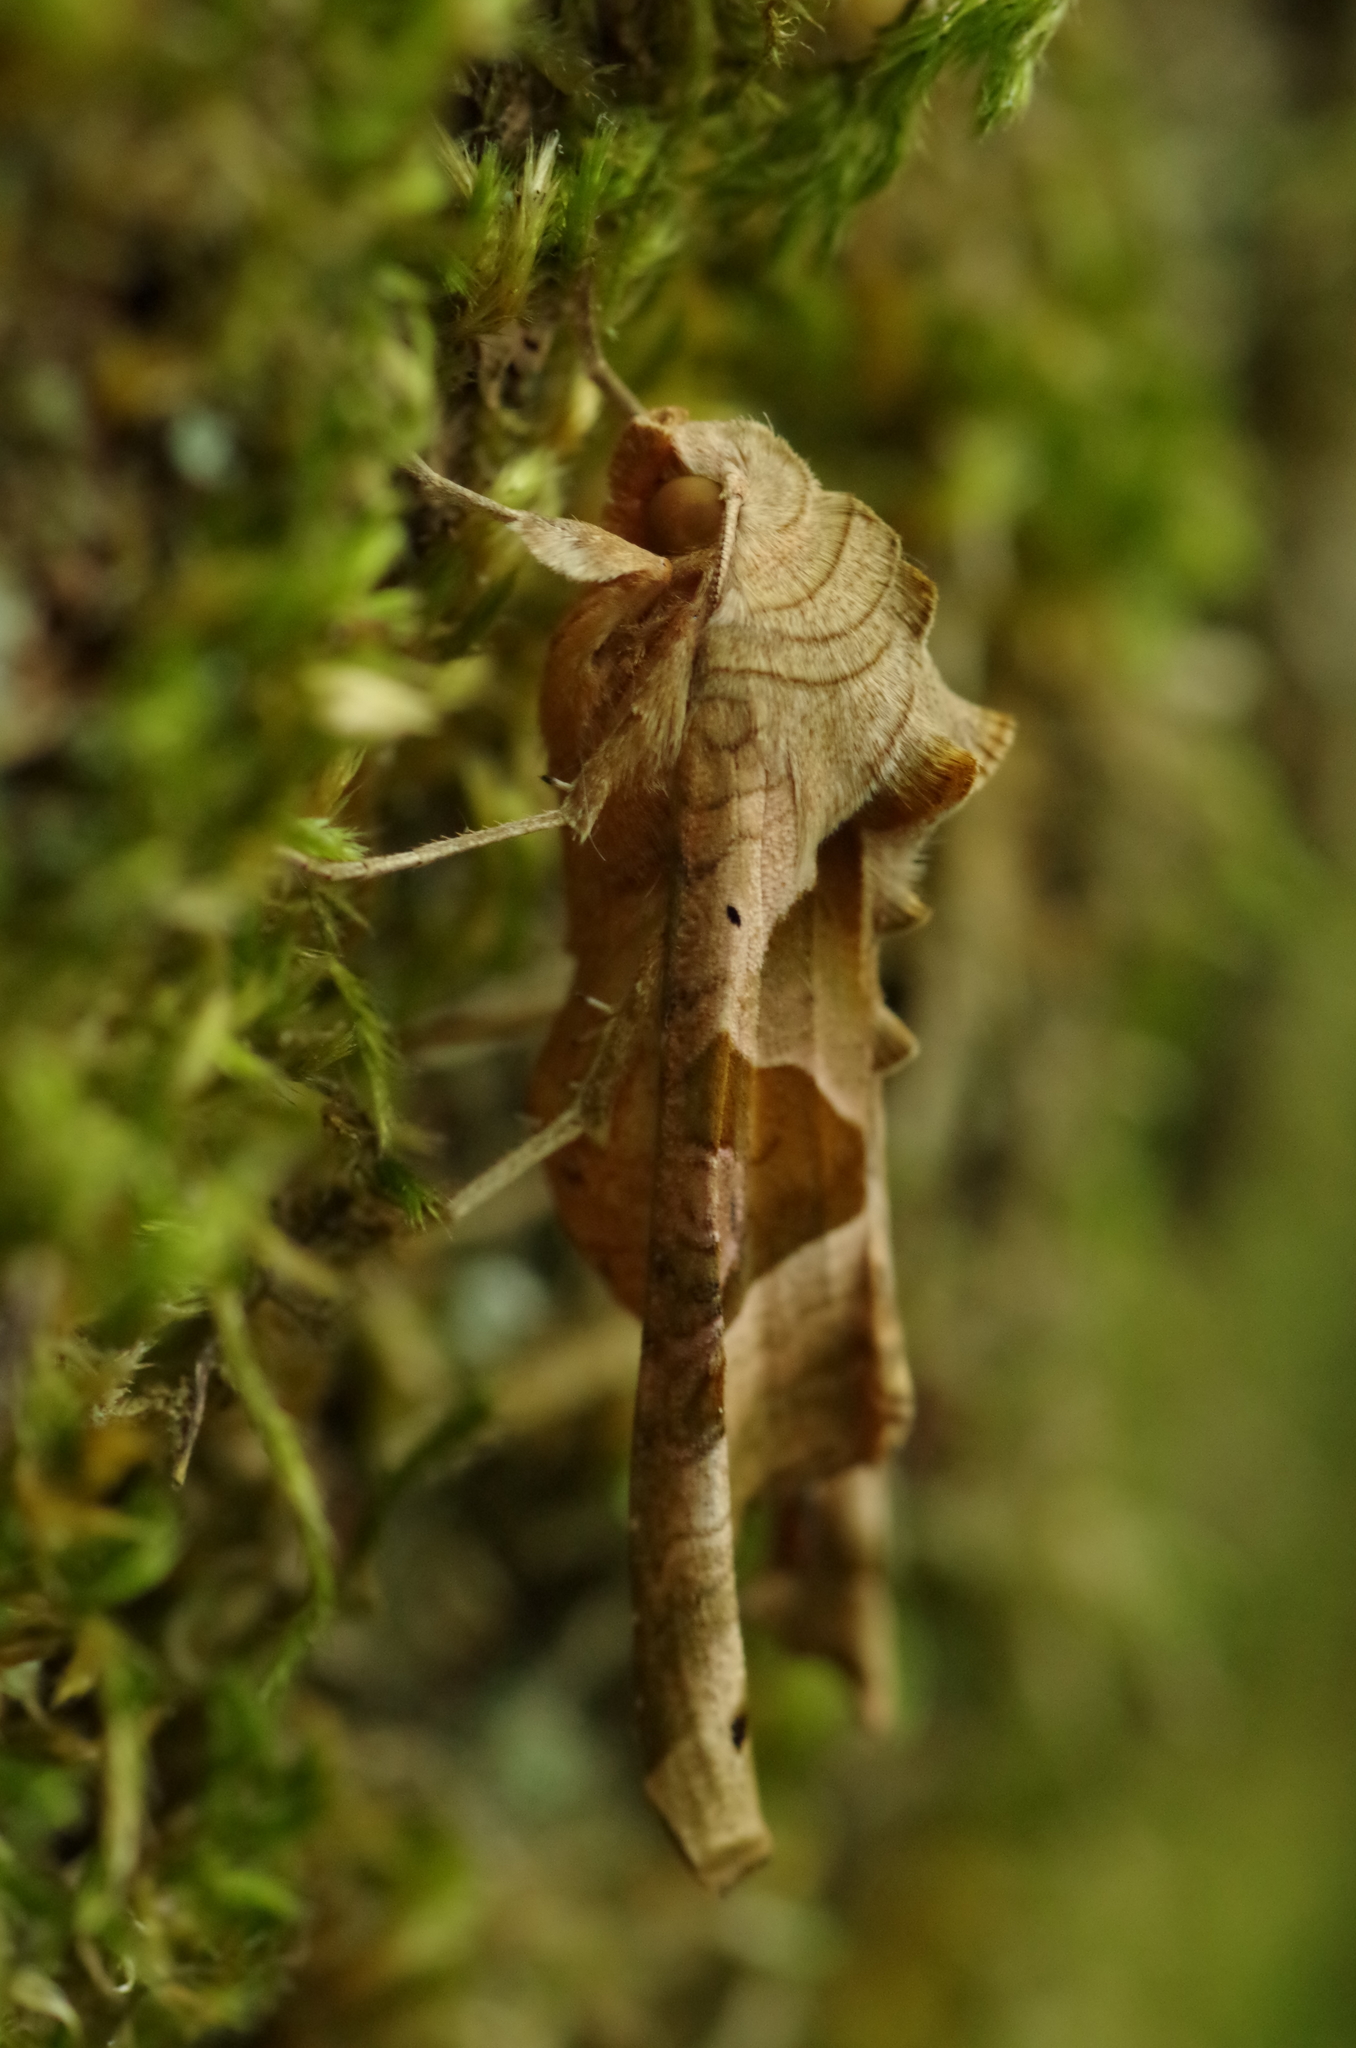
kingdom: Animalia
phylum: Arthropoda
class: Insecta
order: Lepidoptera
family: Noctuidae
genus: Phlogophora
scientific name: Phlogophora meticulosa
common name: Angle shades
